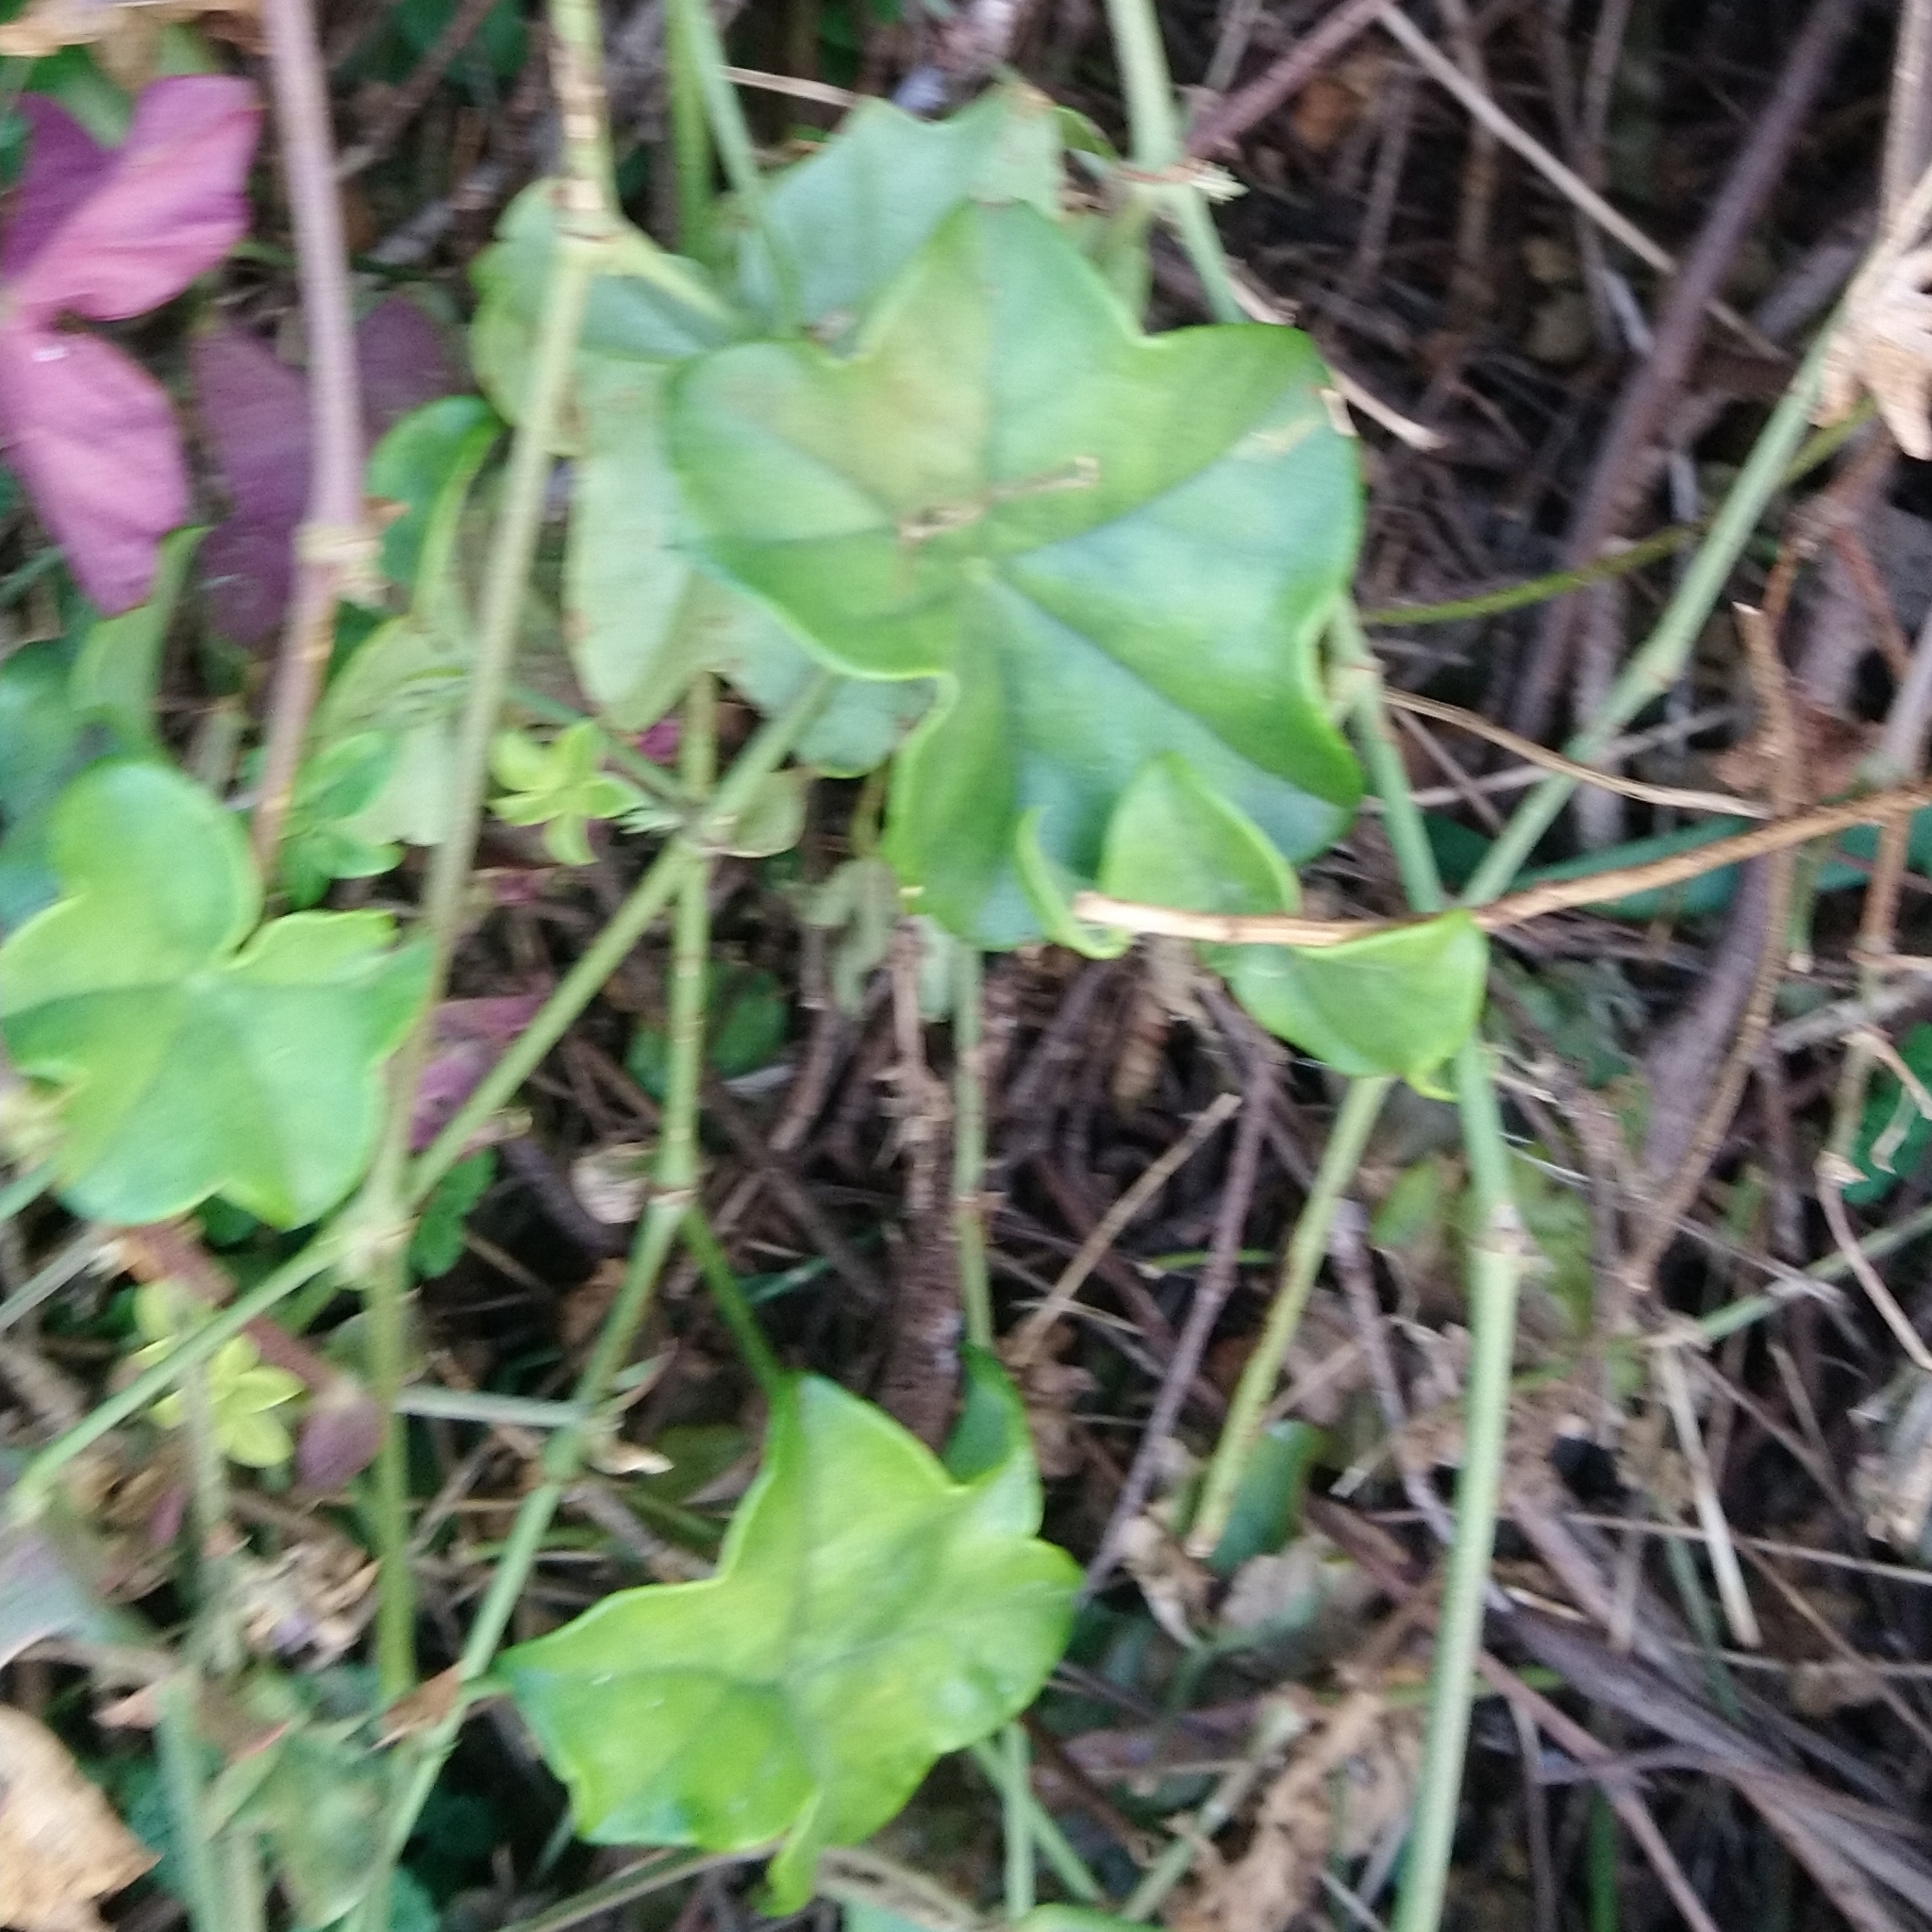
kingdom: Plantae
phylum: Tracheophyta
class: Magnoliopsida
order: Geraniales
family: Geraniaceae
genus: Pelargonium
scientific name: Pelargonium peltatum
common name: Ivyleaf geranium
